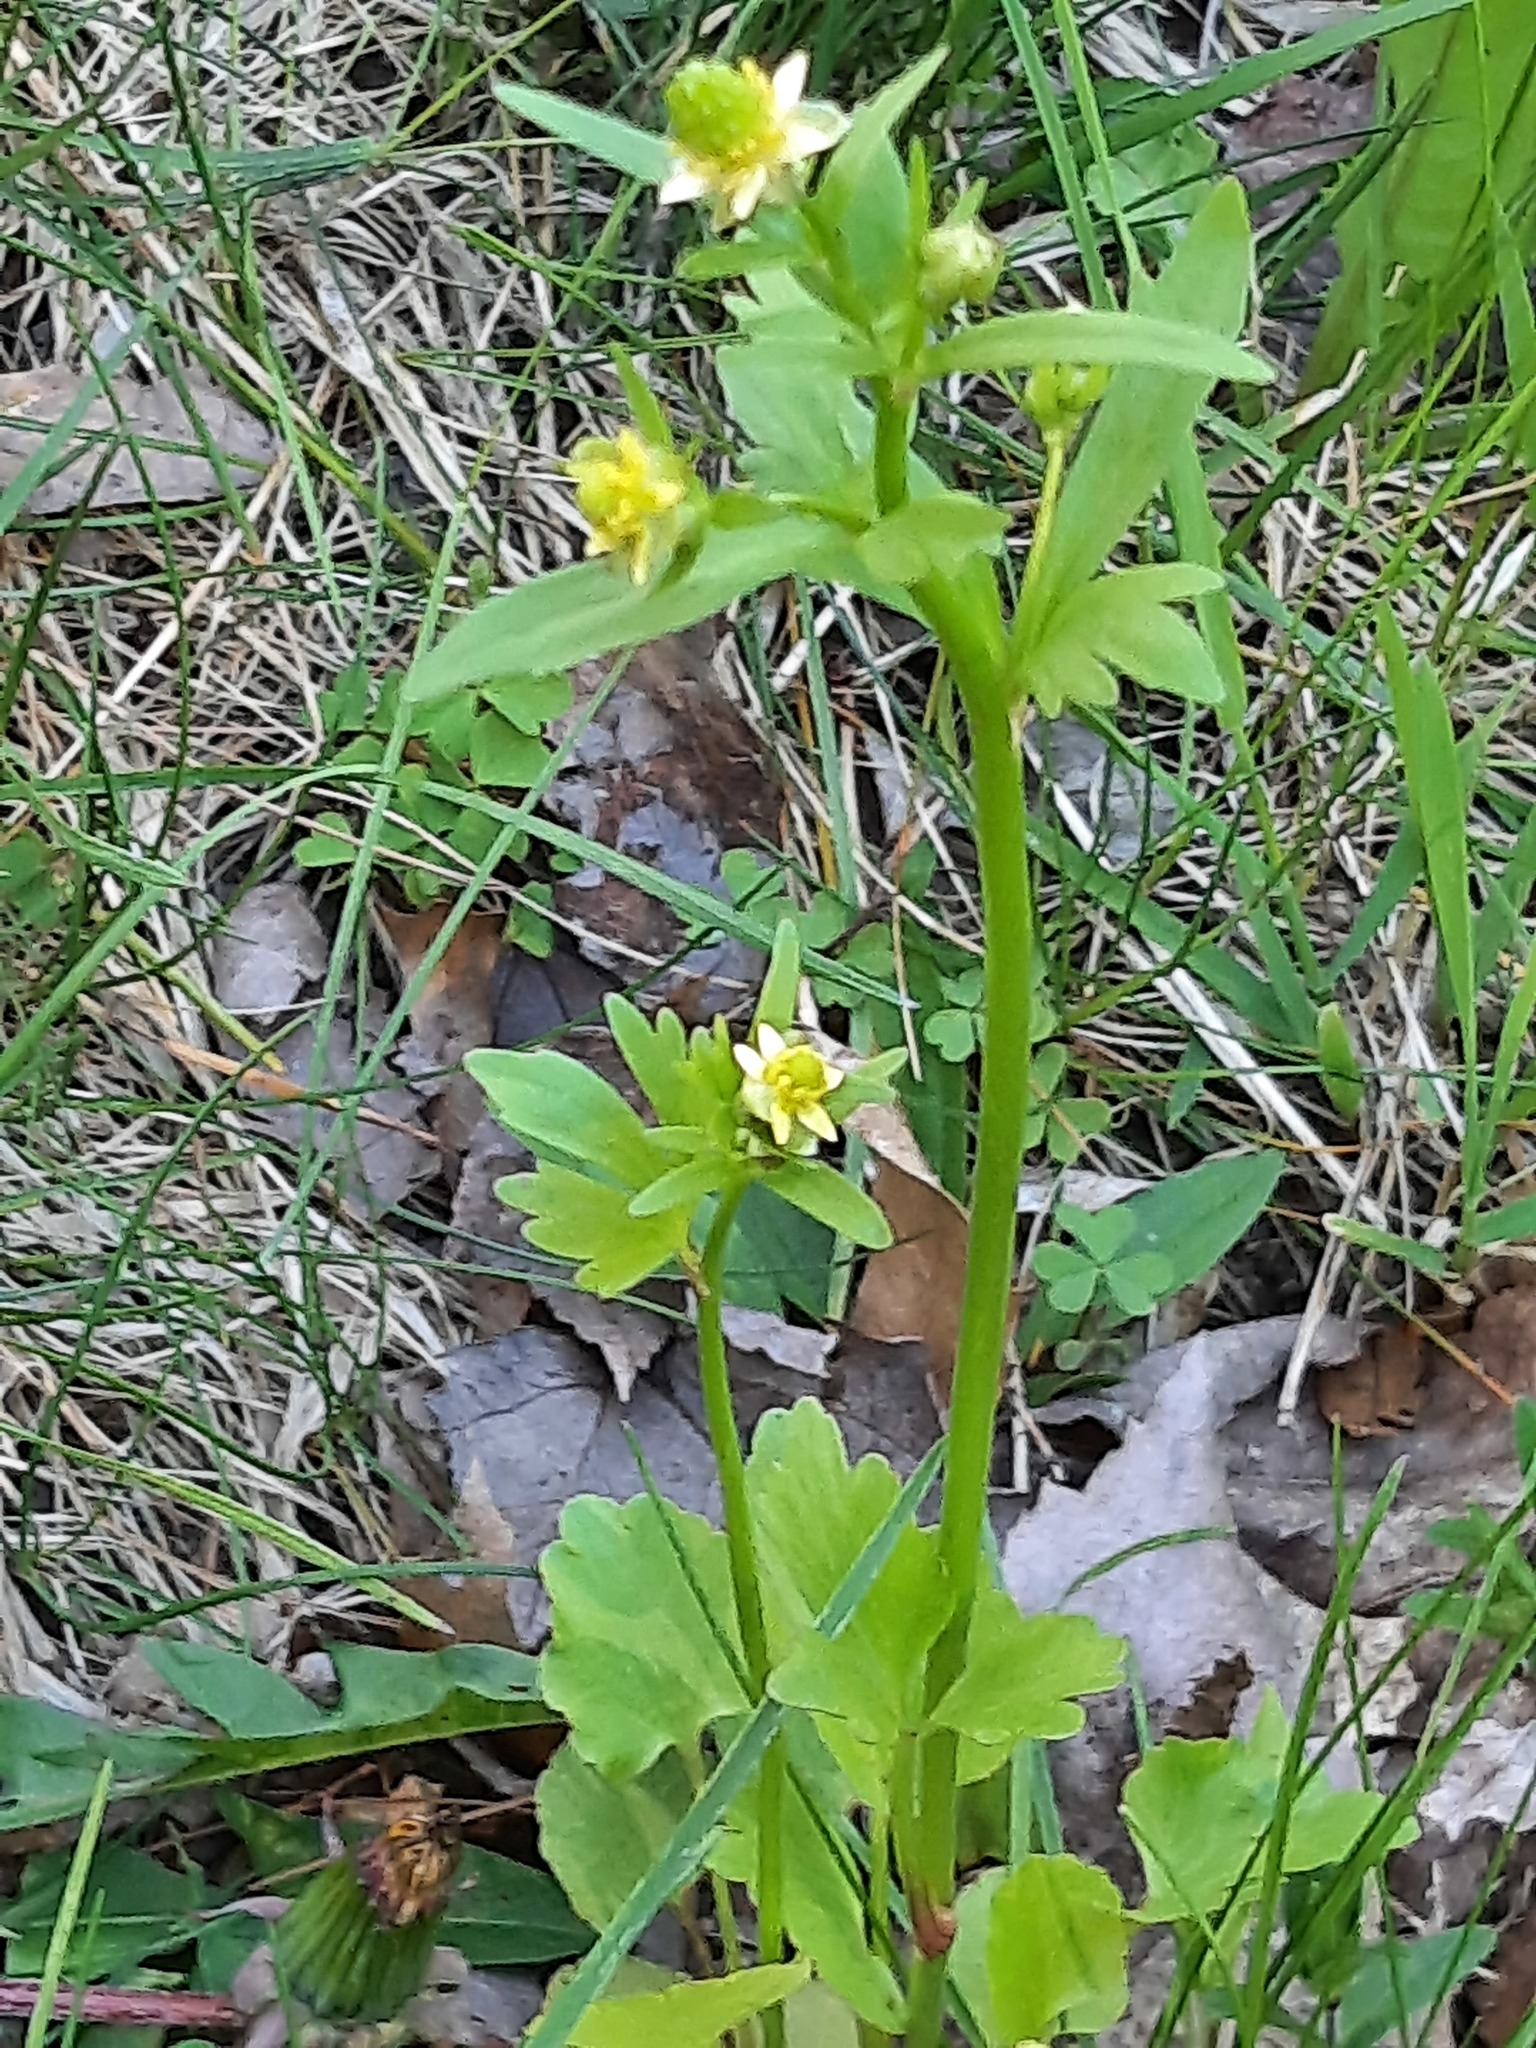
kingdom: Plantae
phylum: Tracheophyta
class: Magnoliopsida
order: Ranunculales
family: Ranunculaceae
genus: Ranunculus
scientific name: Ranunculus abortivus
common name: Early wood buttercup
